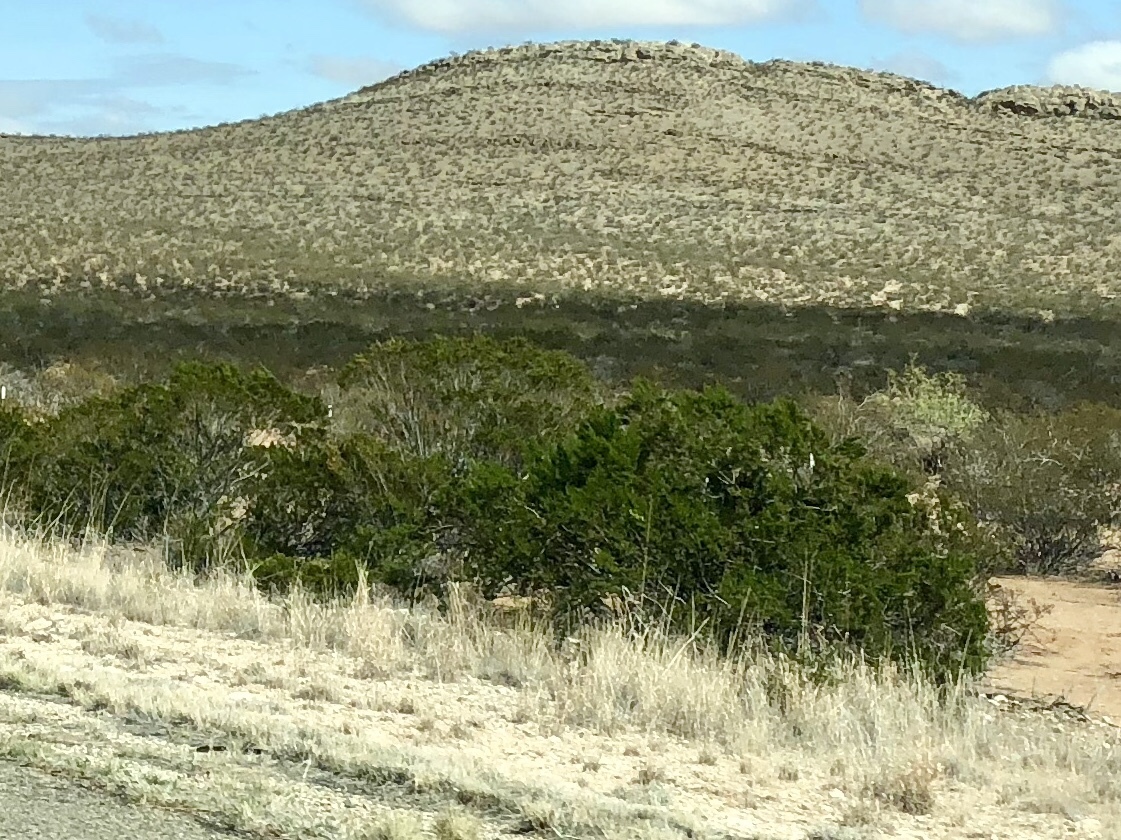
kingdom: Plantae
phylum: Tracheophyta
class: Magnoliopsida
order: Zygophyllales
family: Zygophyllaceae
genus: Larrea
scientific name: Larrea tridentata
